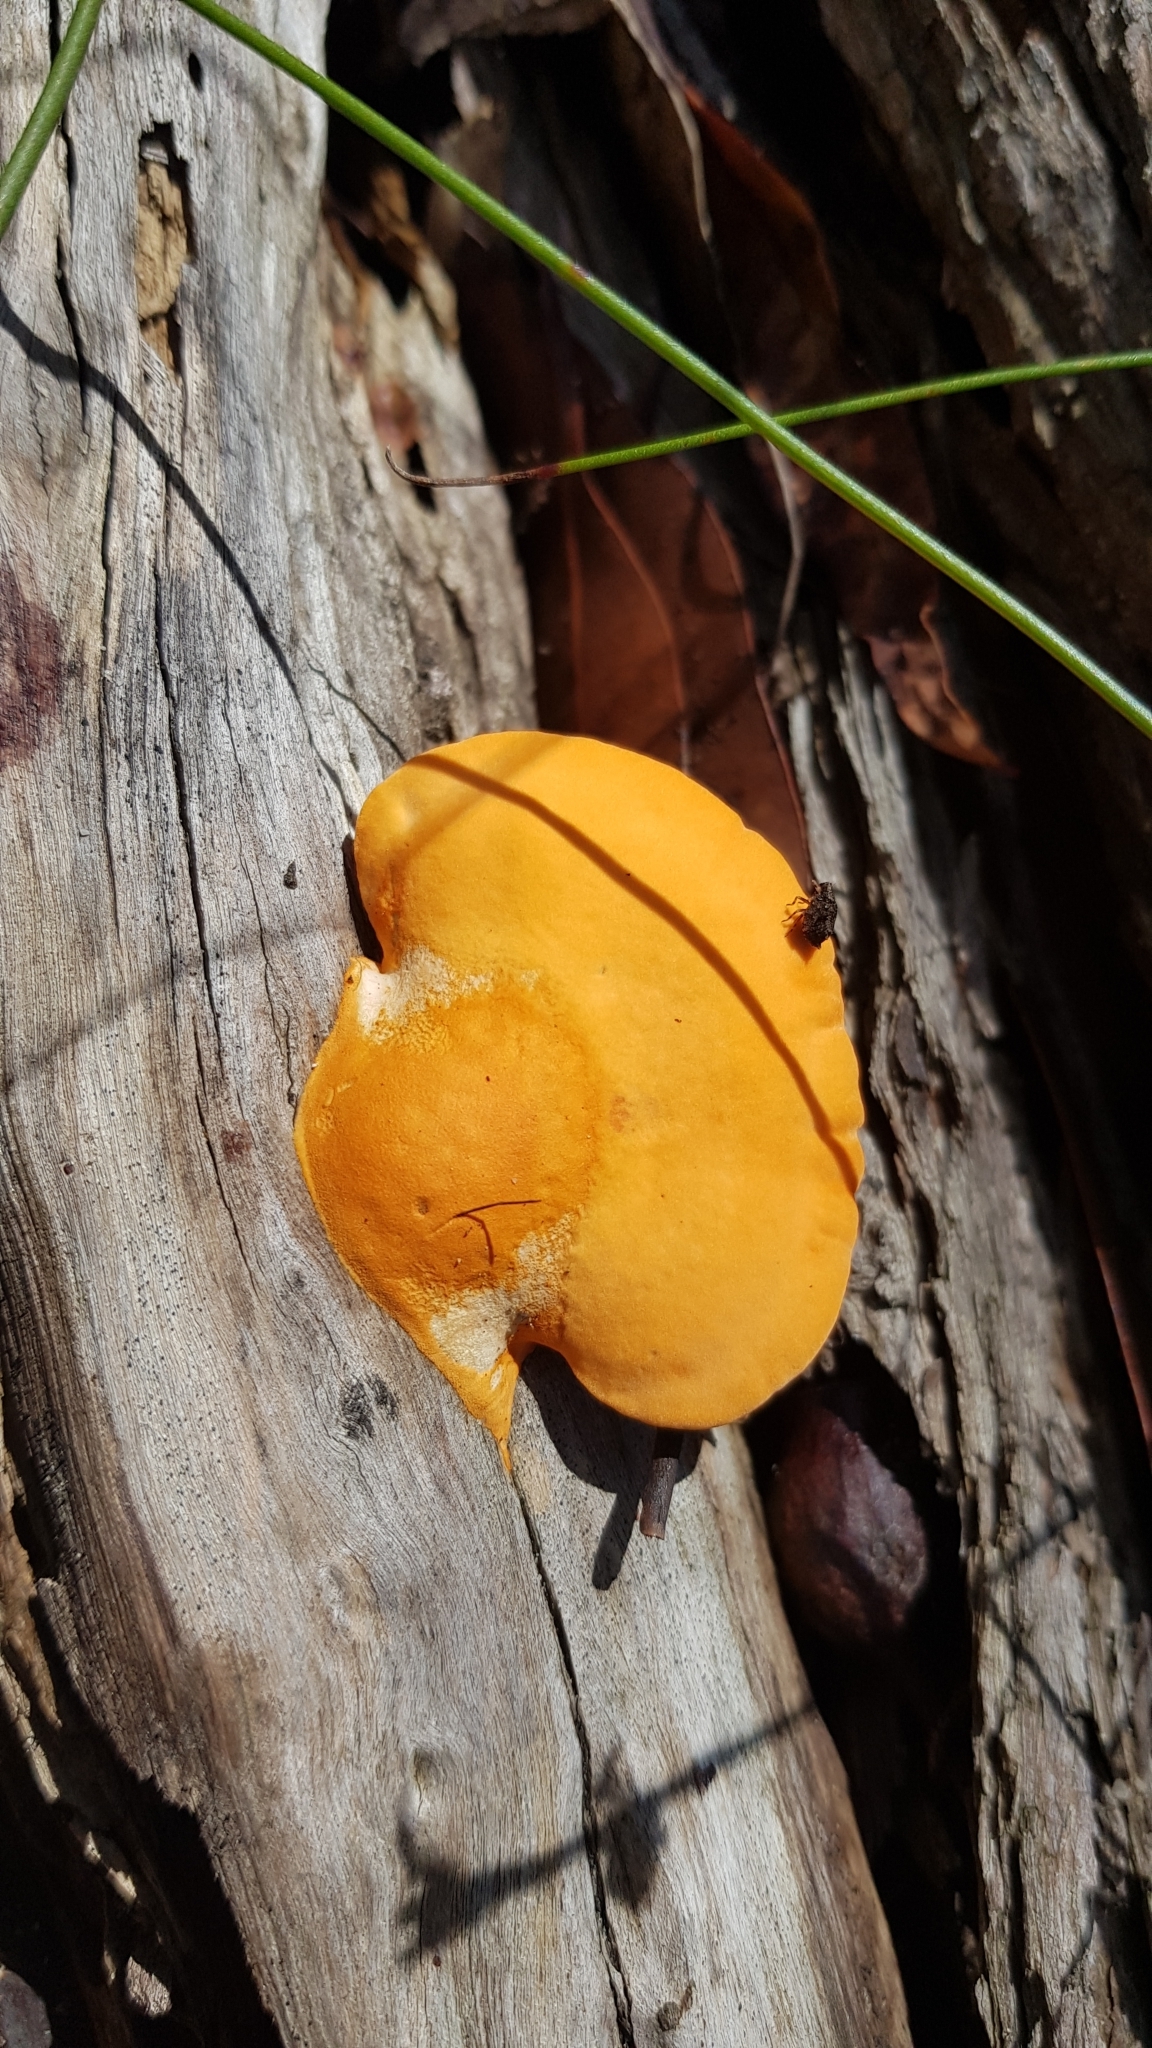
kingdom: Fungi
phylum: Basidiomycota
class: Agaricomycetes
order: Polyporales
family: Polyporaceae
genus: Trametes
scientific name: Trametes coccinea
